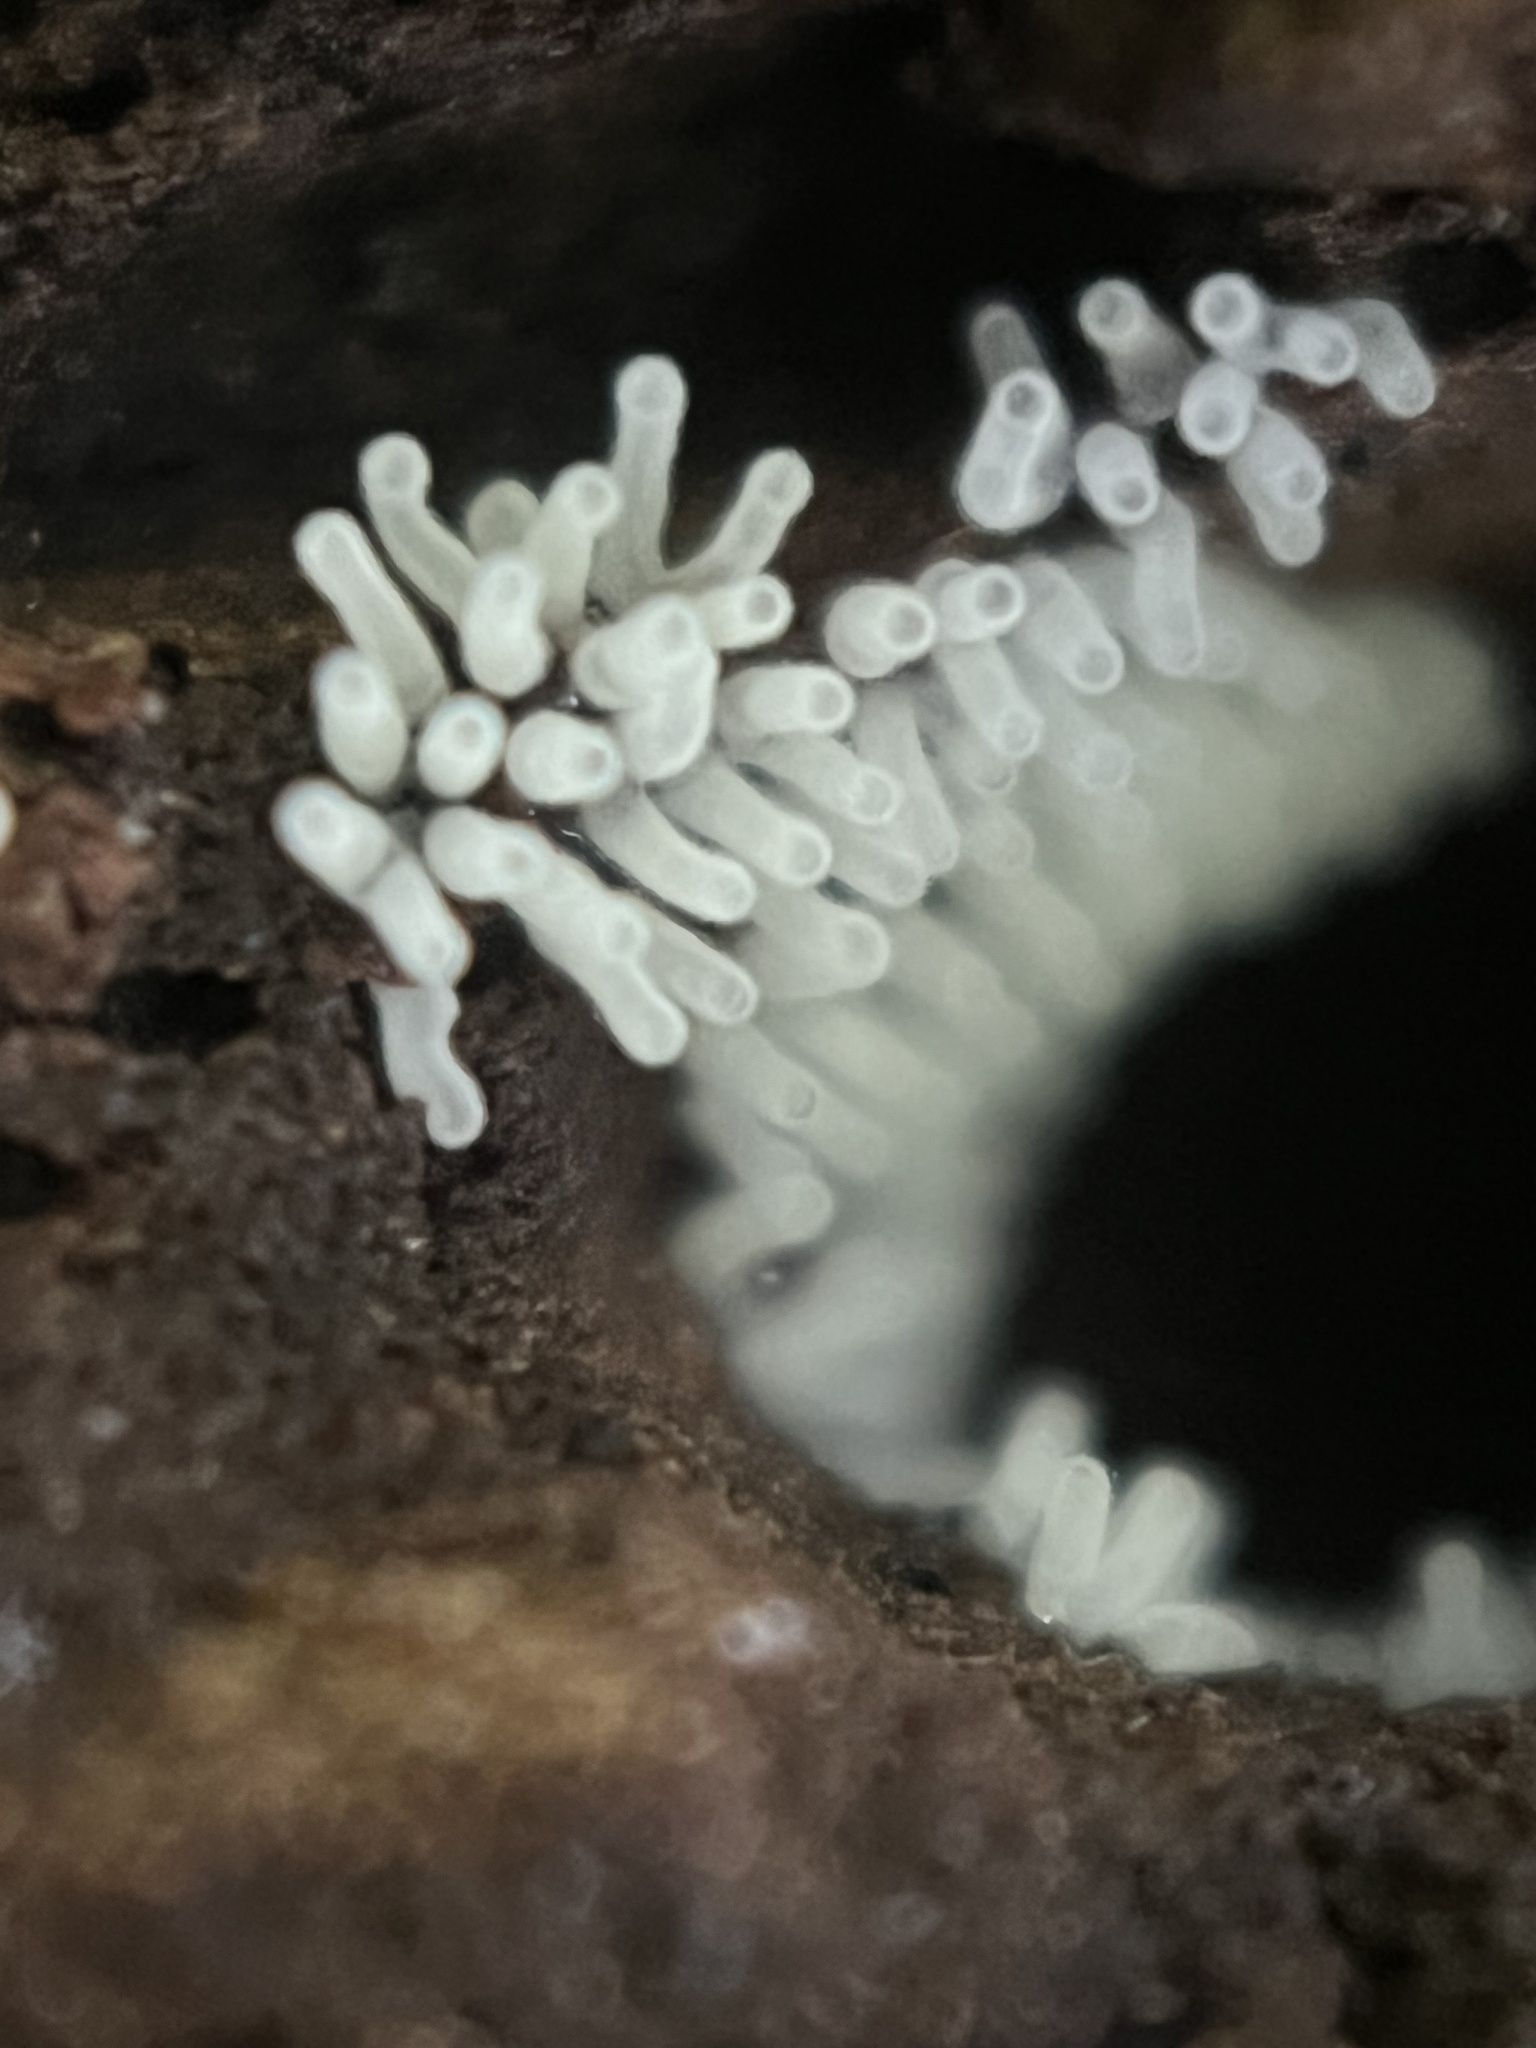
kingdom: Protozoa
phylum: Mycetozoa
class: Protosteliomycetes
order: Ceratiomyxales
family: Ceratiomyxaceae
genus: Ceratiomyxa
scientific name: Ceratiomyxa fruticulosa
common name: Honeycomb coral slime mold
